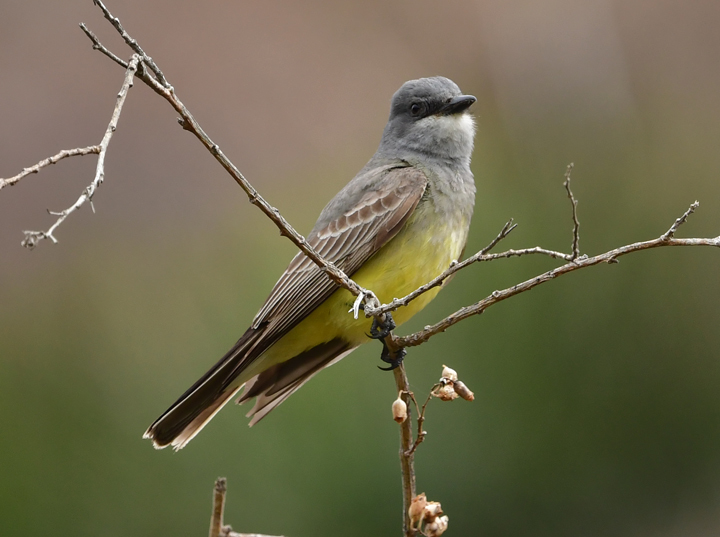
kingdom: Animalia
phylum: Chordata
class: Aves
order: Passeriformes
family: Tyrannidae
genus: Tyrannus
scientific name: Tyrannus vociferans
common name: Cassin's kingbird
